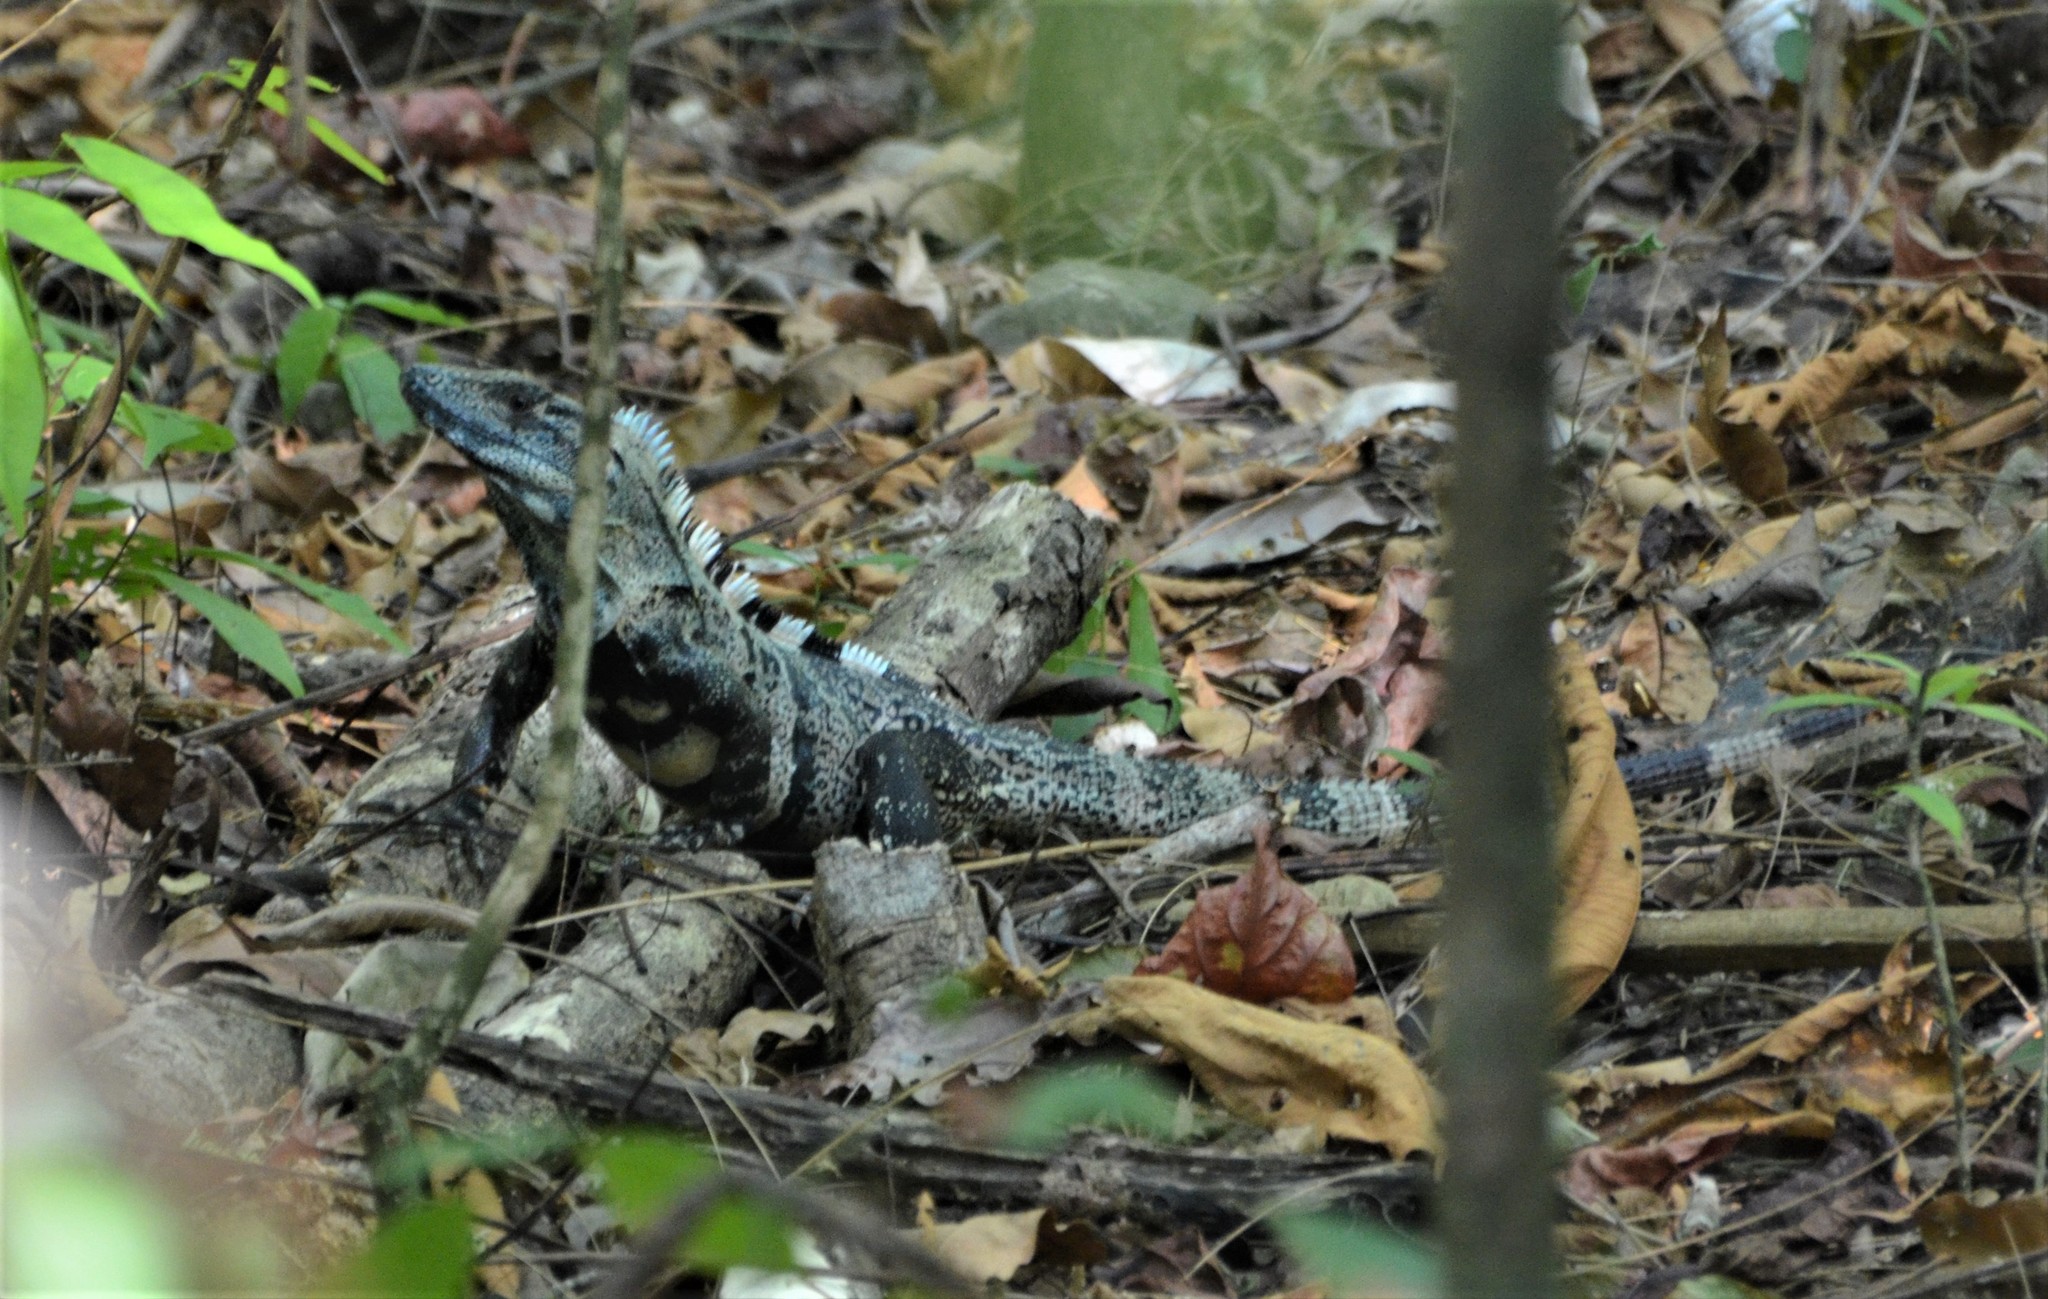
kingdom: Animalia
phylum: Chordata
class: Squamata
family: Iguanidae
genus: Ctenosaura
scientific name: Ctenosaura similis
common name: Black spiny-tailed iguana
